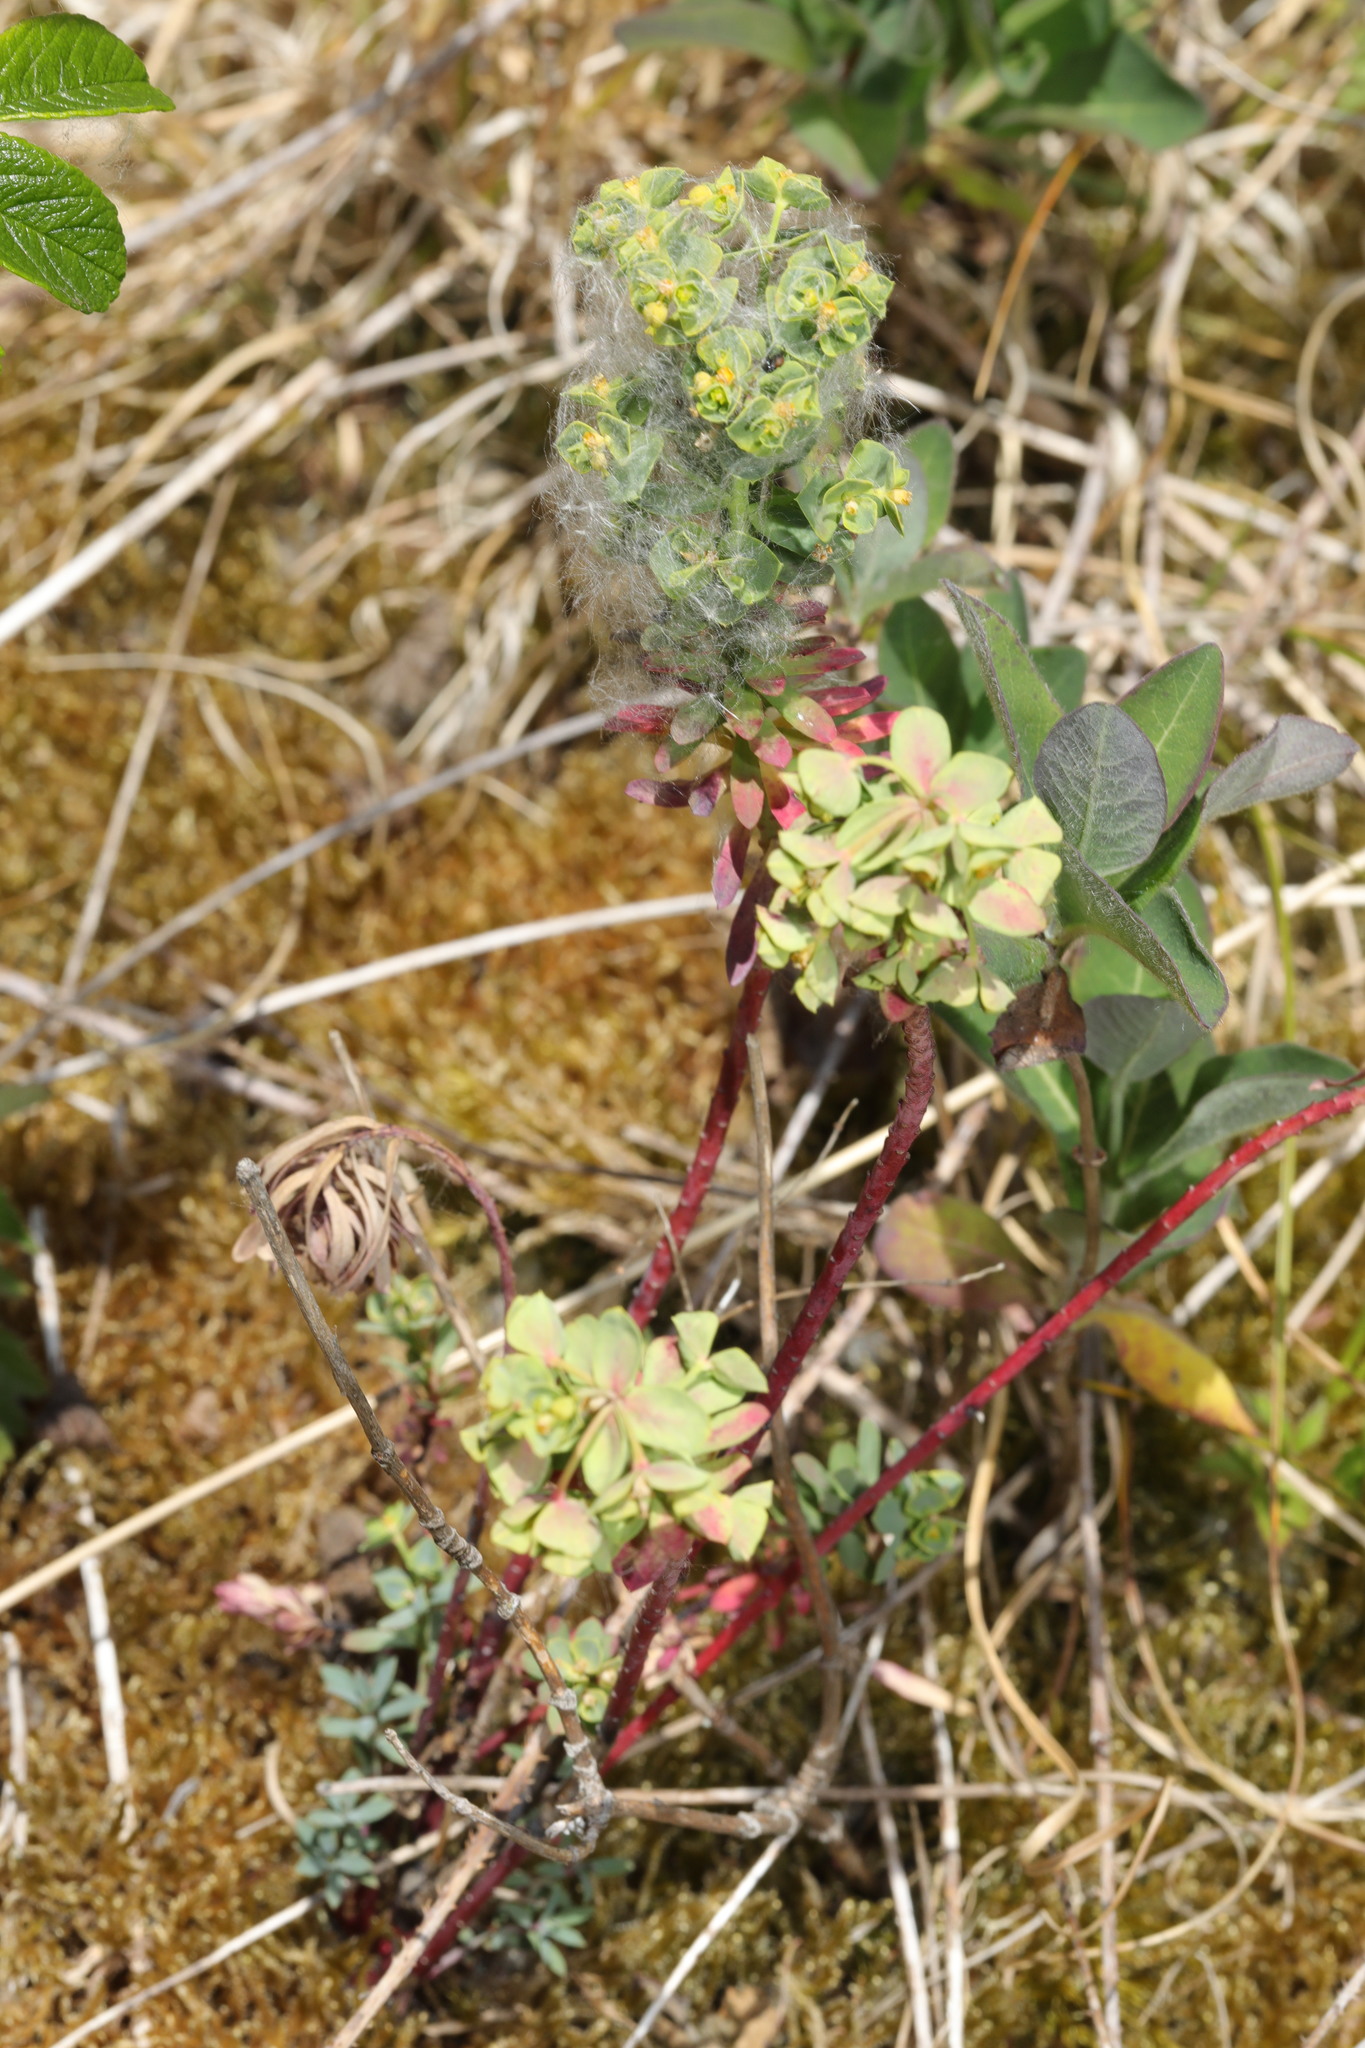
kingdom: Plantae
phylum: Tracheophyta
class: Magnoliopsida
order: Malpighiales
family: Euphorbiaceae
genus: Euphorbia
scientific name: Euphorbia amygdaloides
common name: Wood spurge
